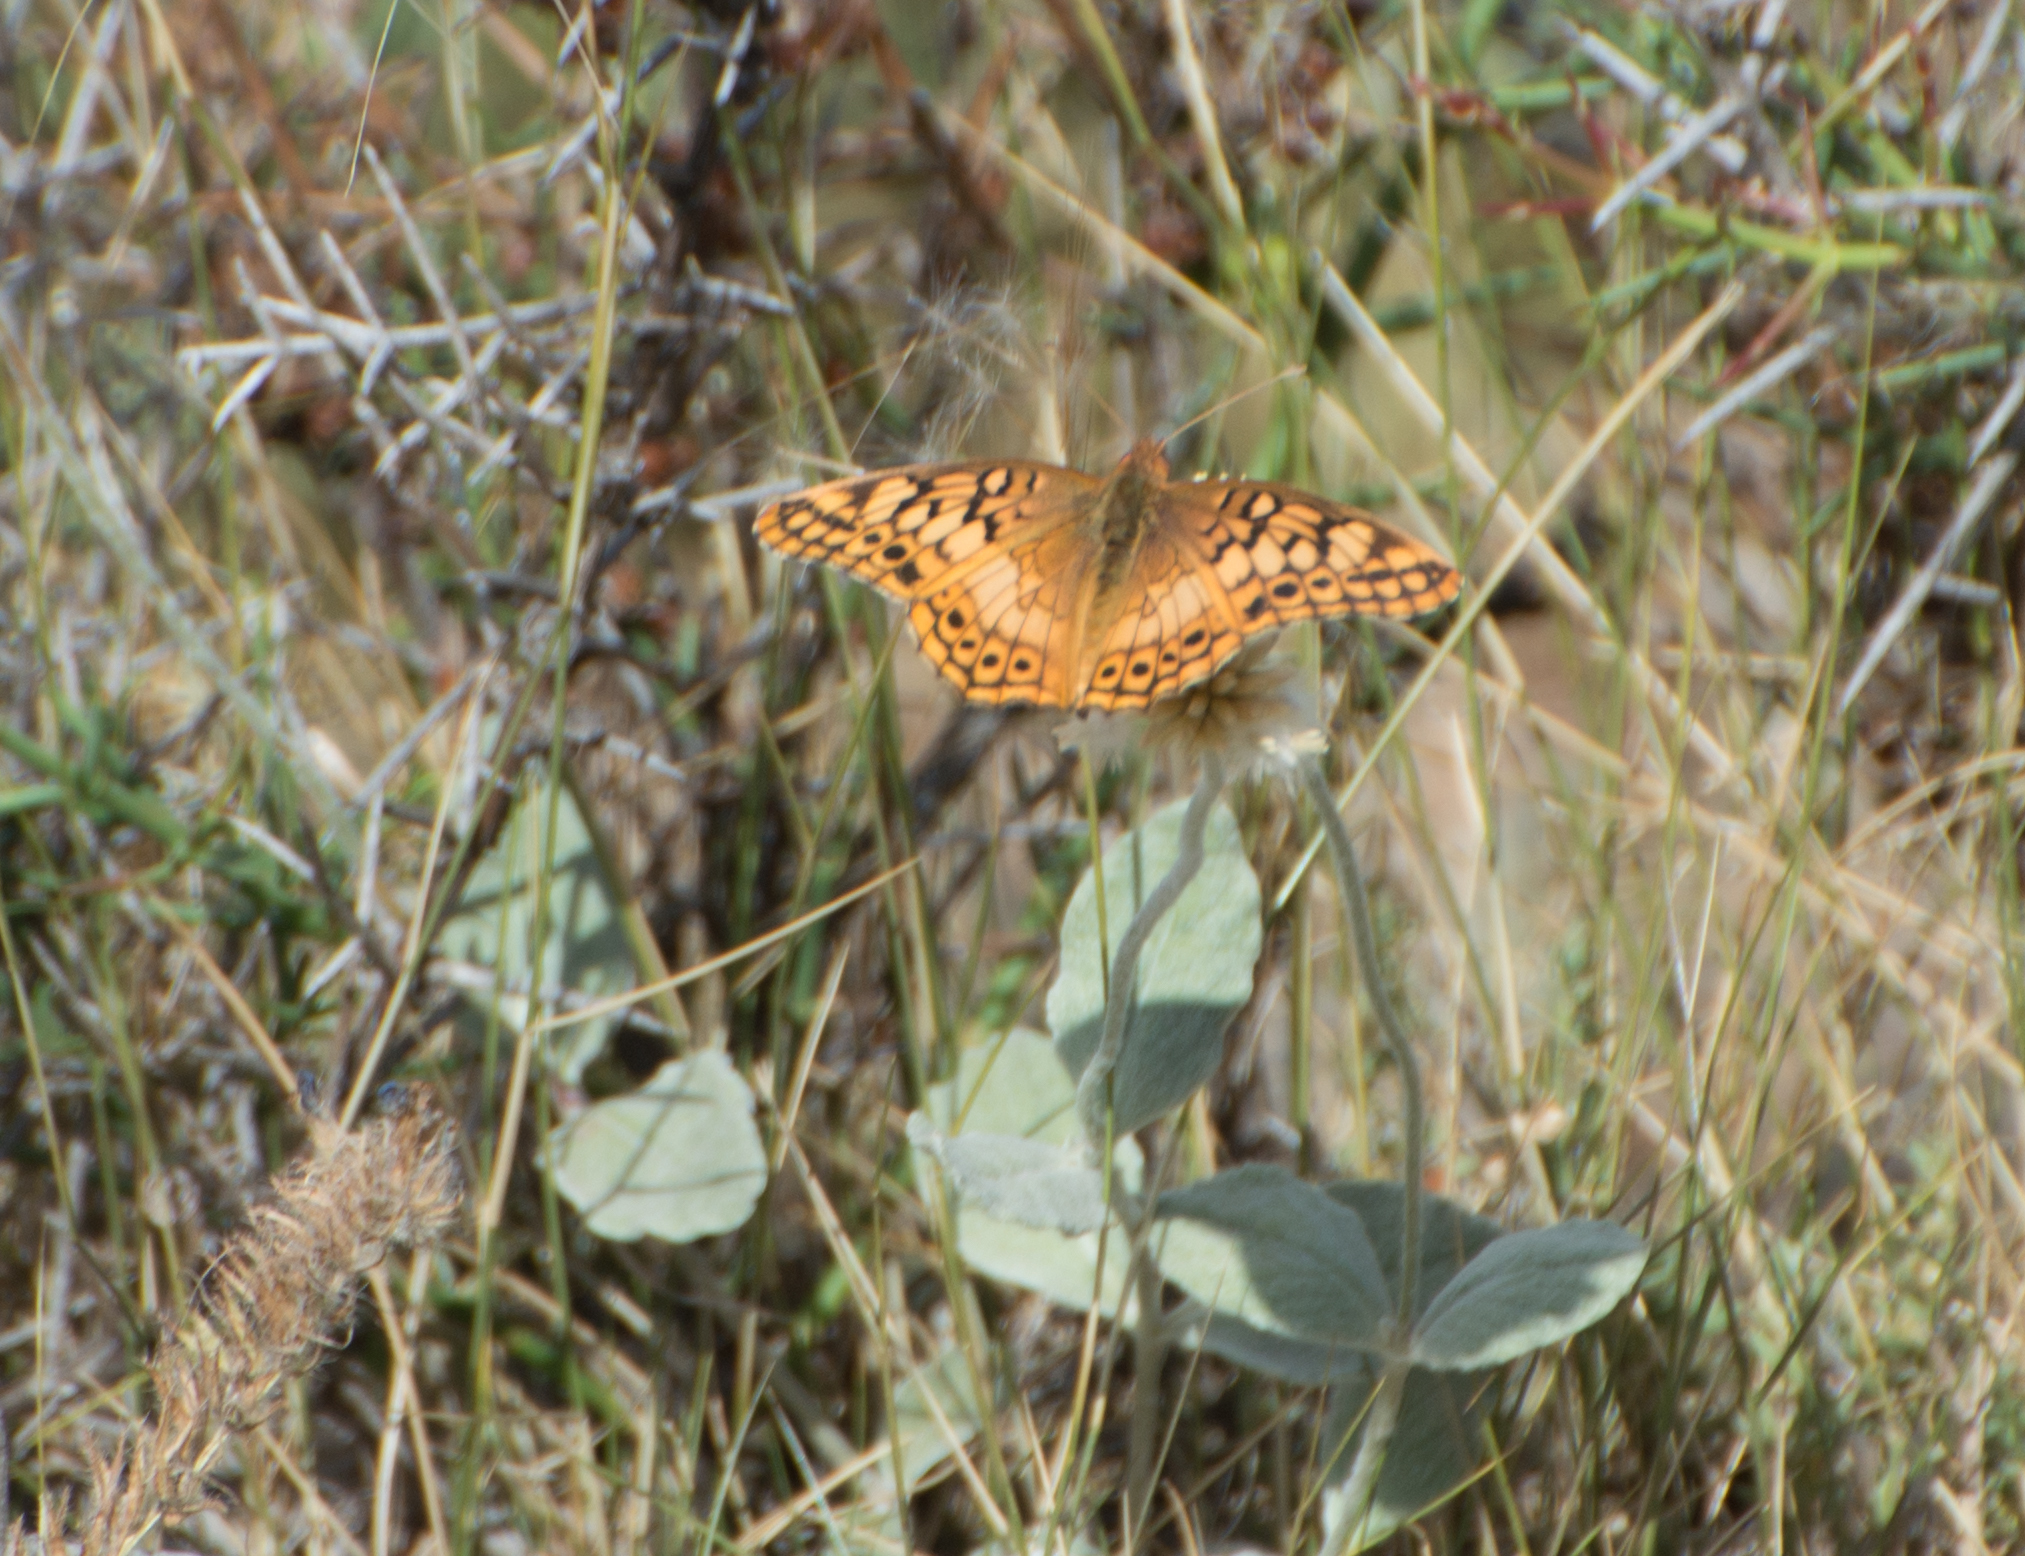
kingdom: Animalia
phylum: Arthropoda
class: Insecta
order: Lepidoptera
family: Nymphalidae
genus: Euptoieta
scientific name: Euptoieta hortensia
